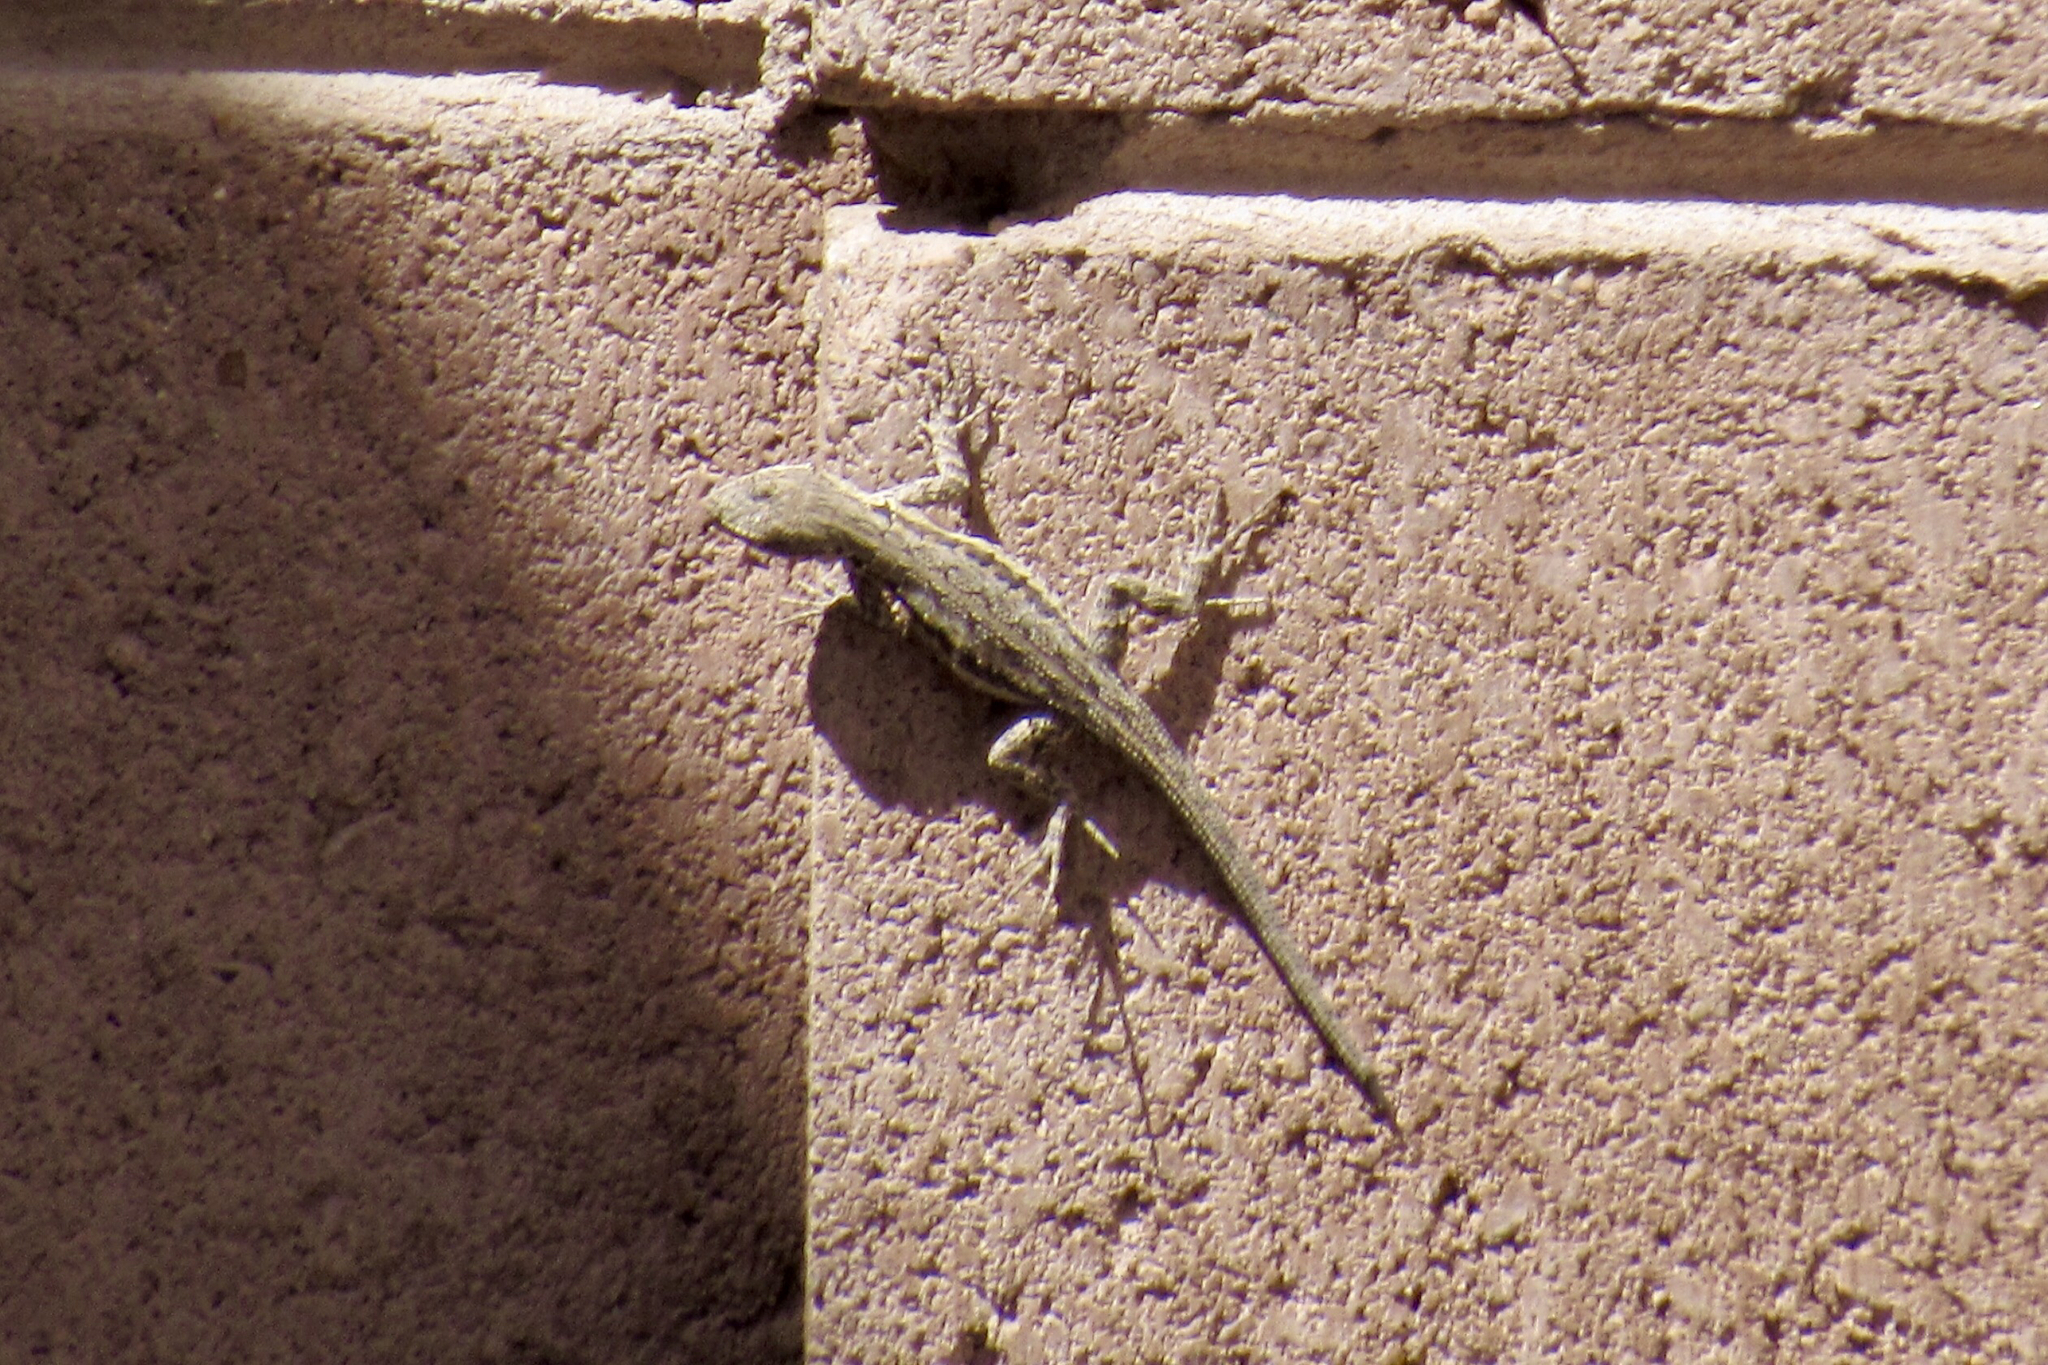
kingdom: Animalia
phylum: Chordata
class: Squamata
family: Phrynosomatidae
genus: Urosaurus
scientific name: Urosaurus ornatus
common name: Ornate tree lizard
